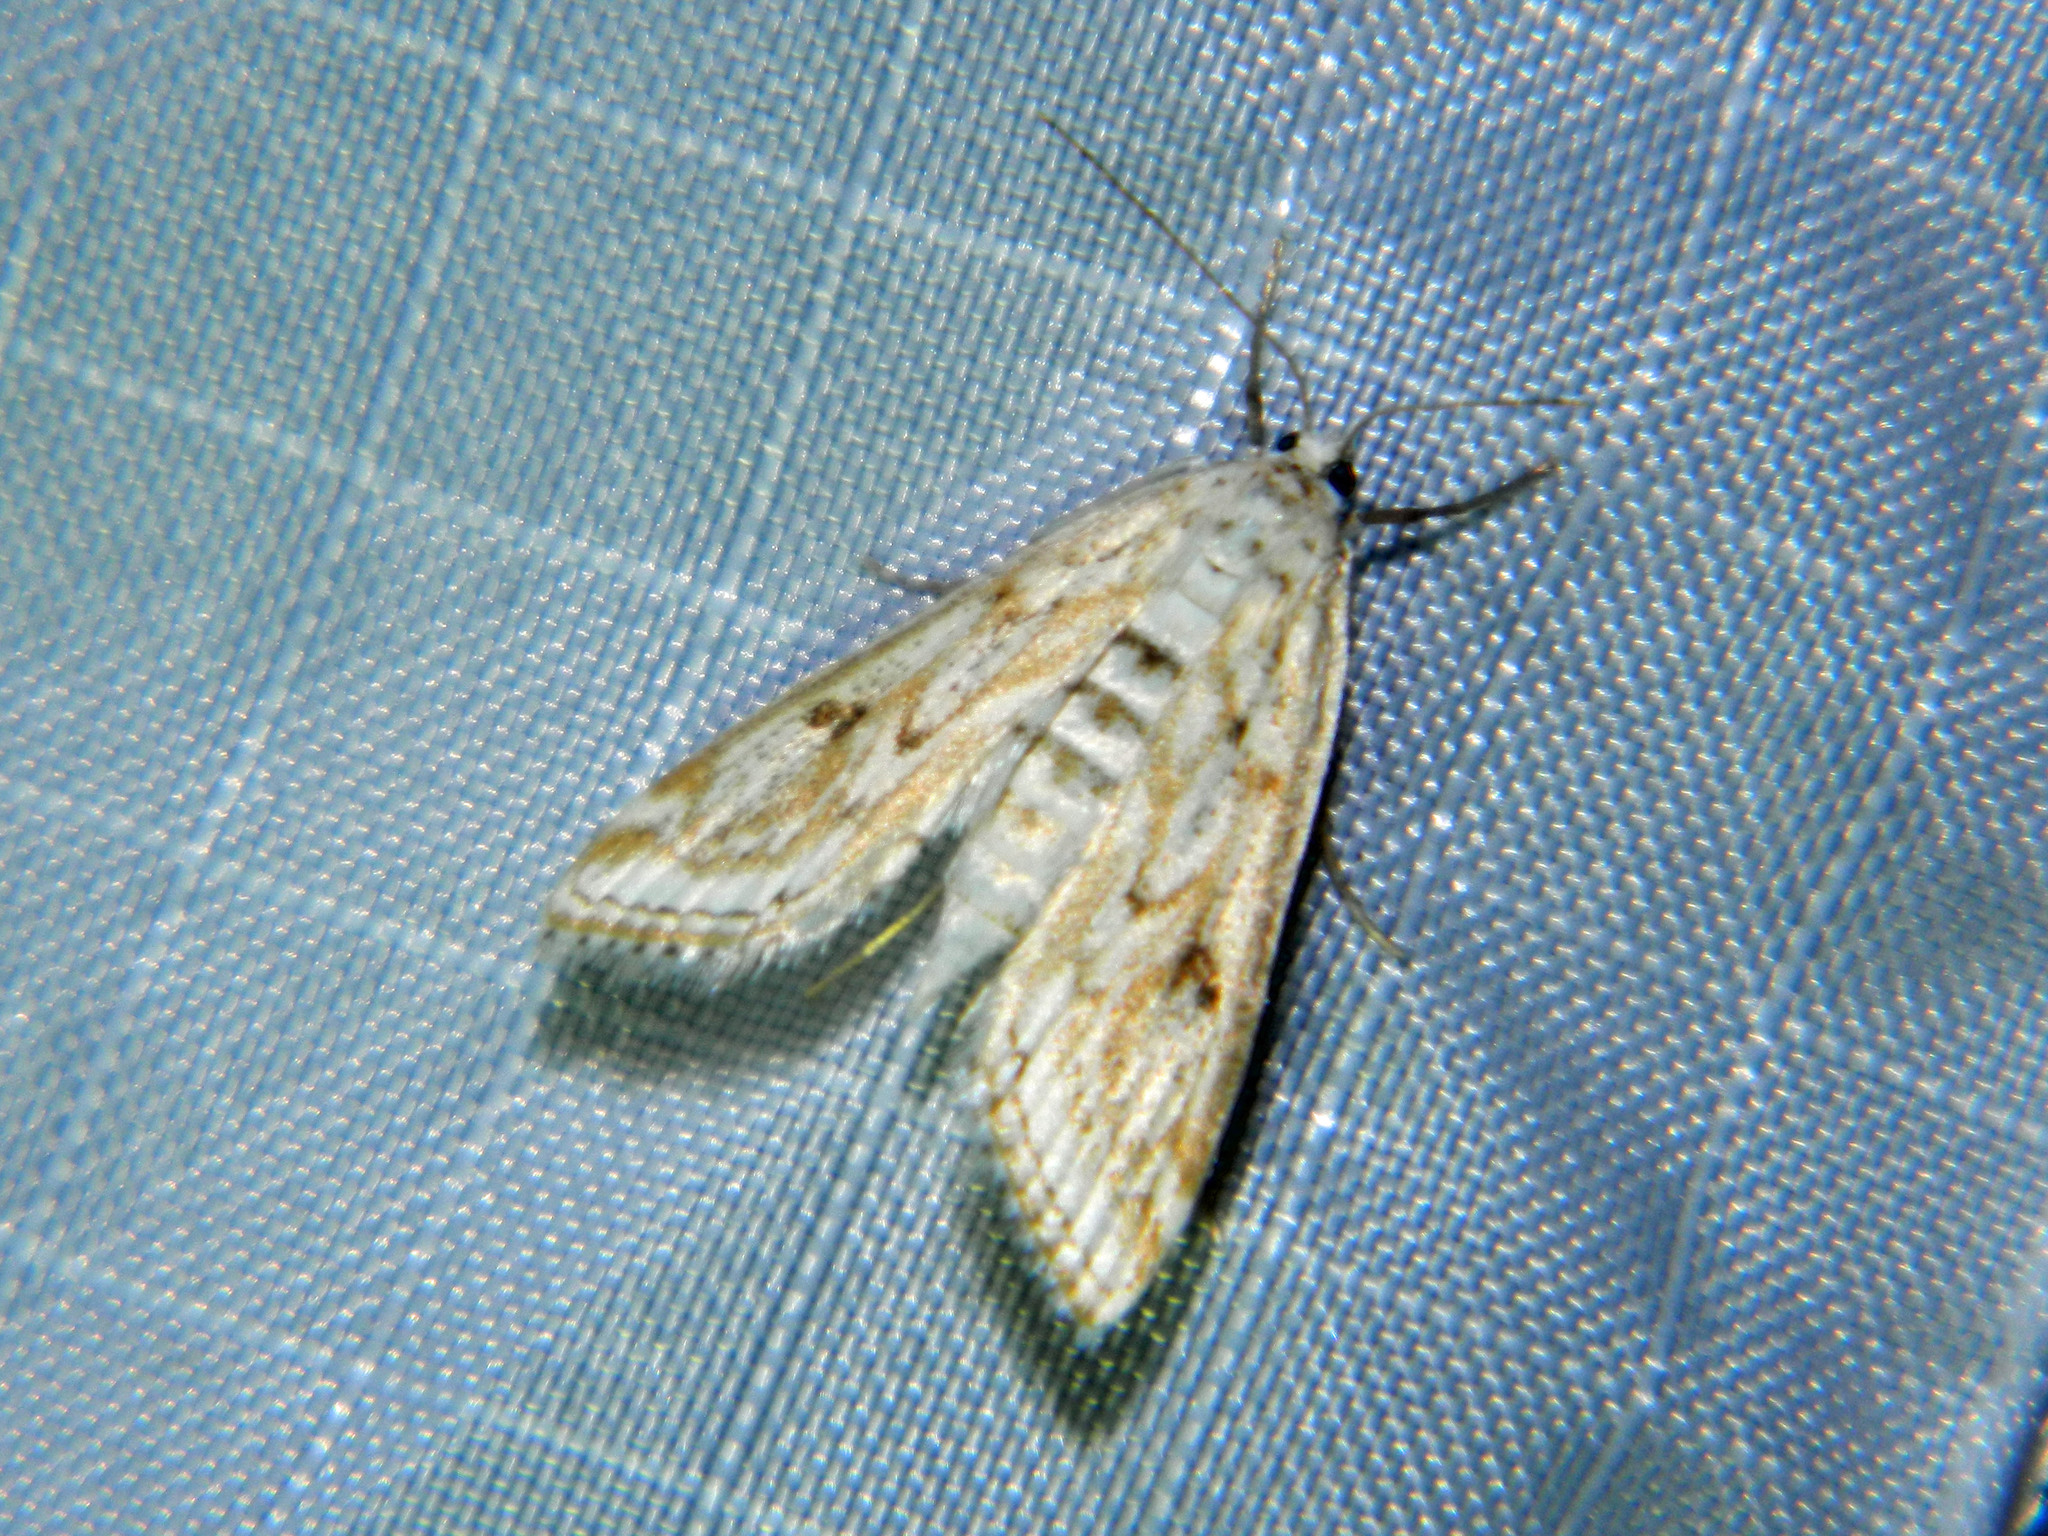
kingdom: Animalia
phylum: Arthropoda
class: Insecta
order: Lepidoptera
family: Crambidae
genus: Parapoynx
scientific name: Parapoynx allionealis
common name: Bladderwort casemaker
